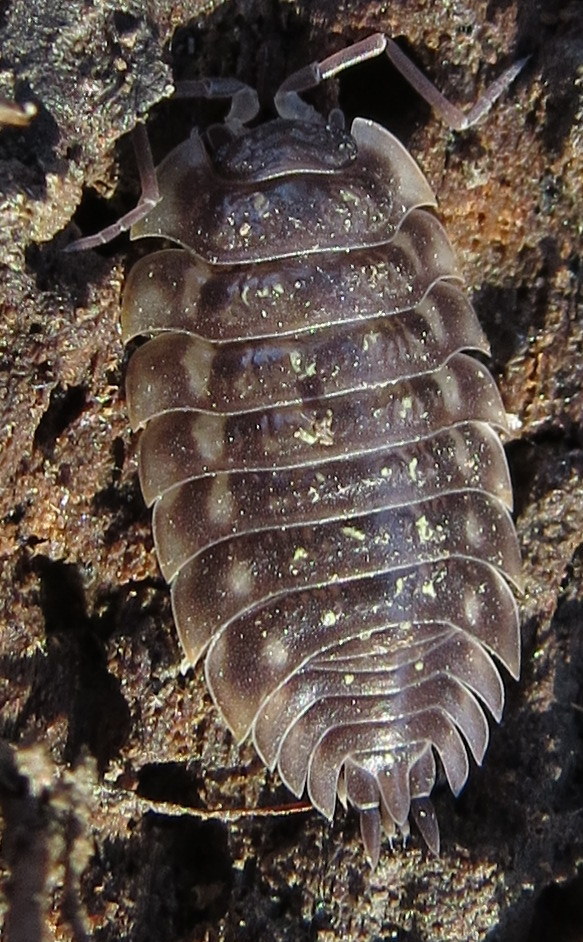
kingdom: Animalia
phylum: Arthropoda
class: Malacostraca
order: Isopoda
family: Oniscidae
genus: Oniscus
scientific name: Oniscus asellus
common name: Common shiny woodlouse
